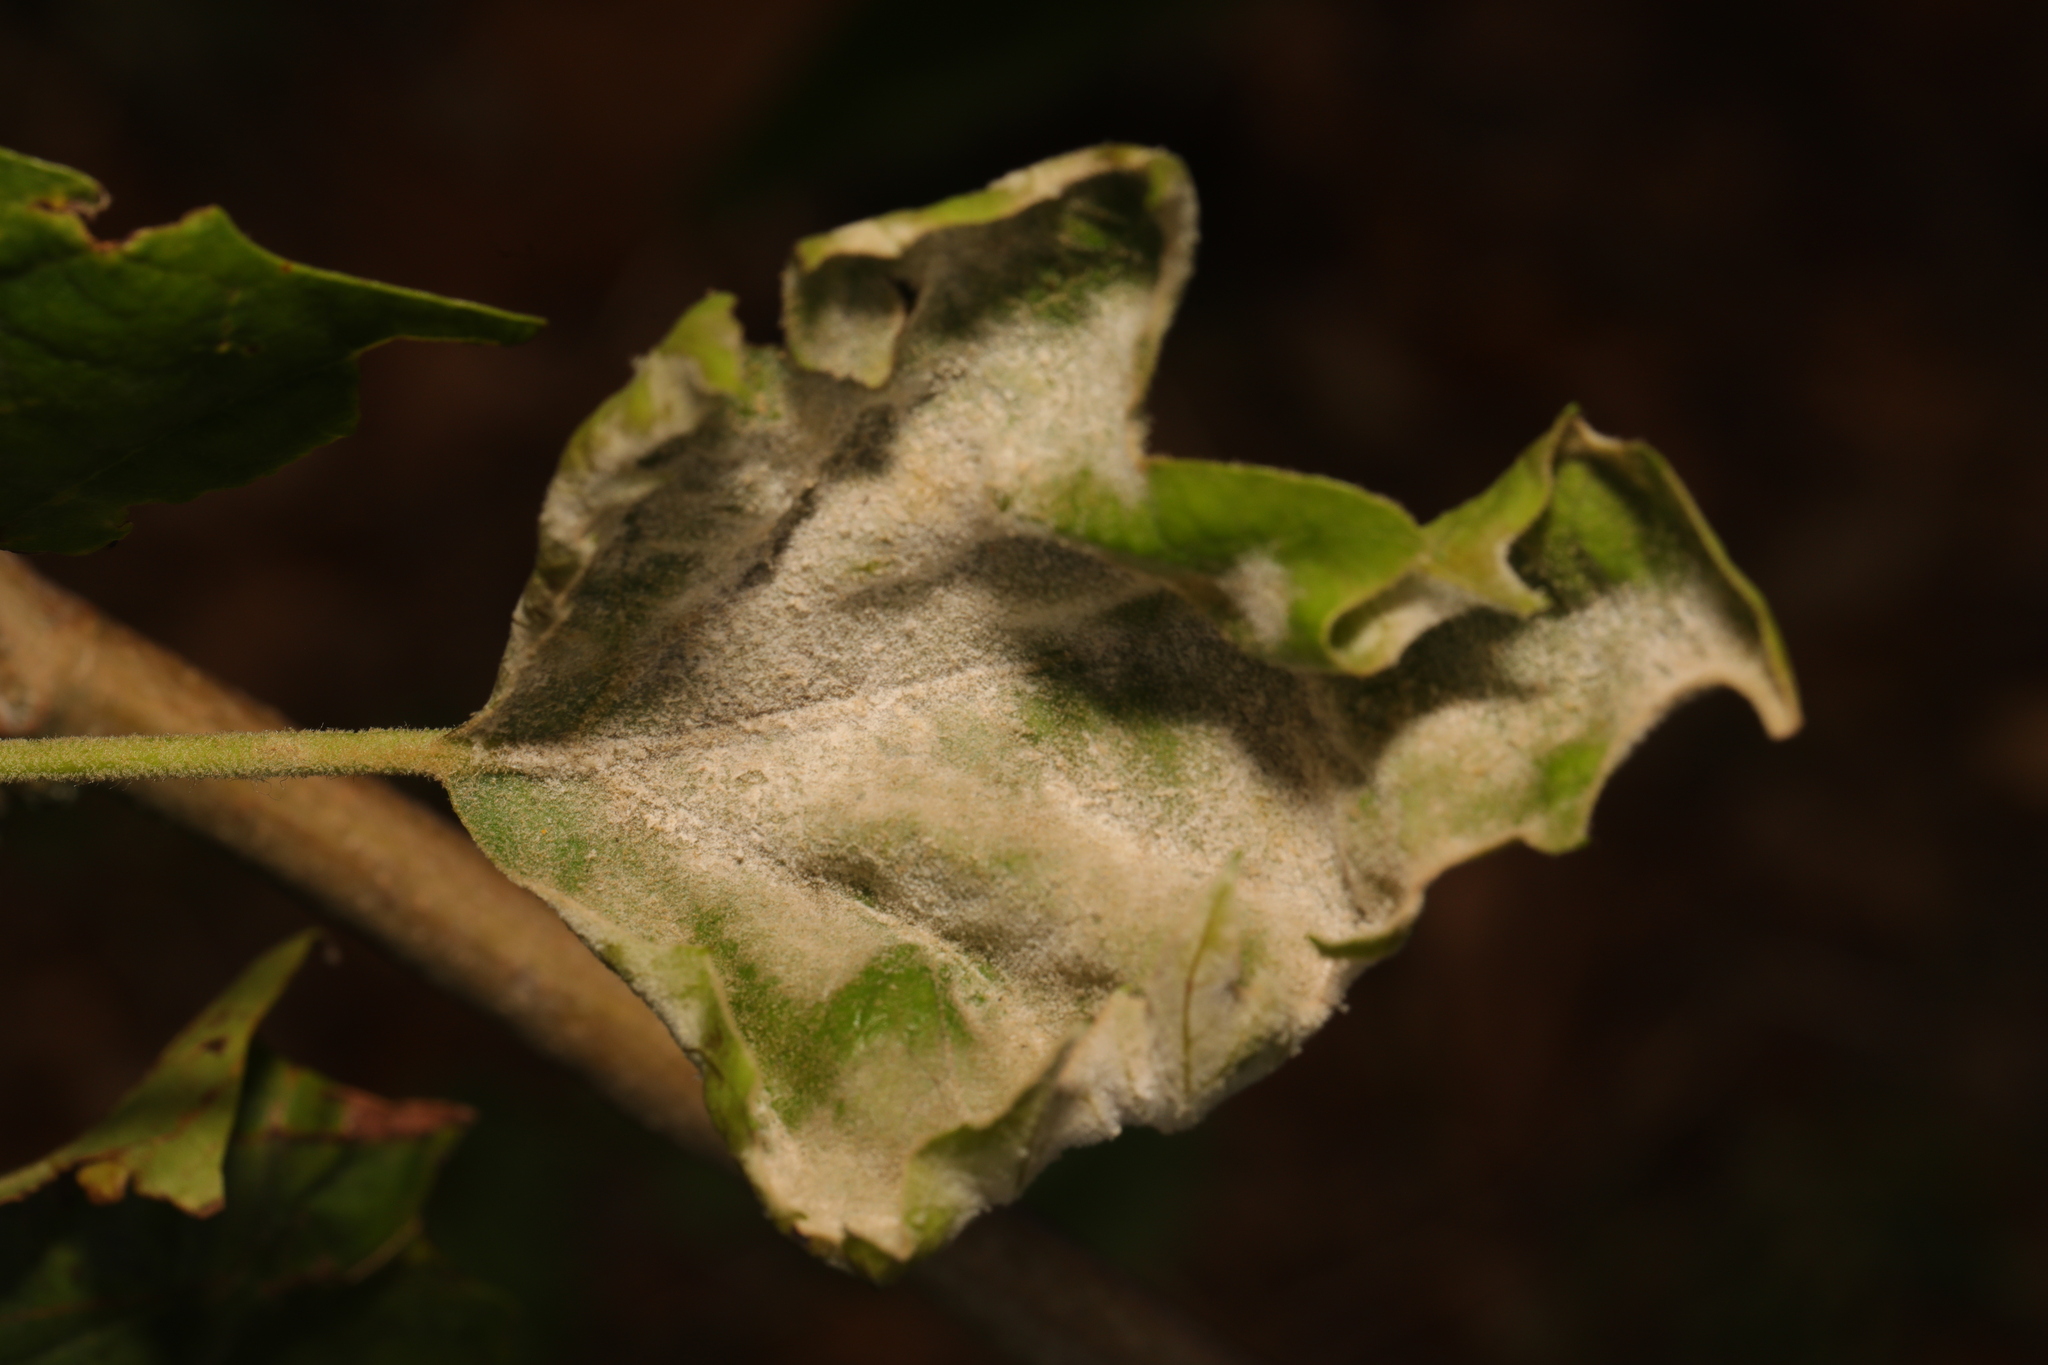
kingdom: Fungi
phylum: Ascomycota
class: Leotiomycetes
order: Helotiales
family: Erysiphaceae
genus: Erysiphe
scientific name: Erysiphe platani
